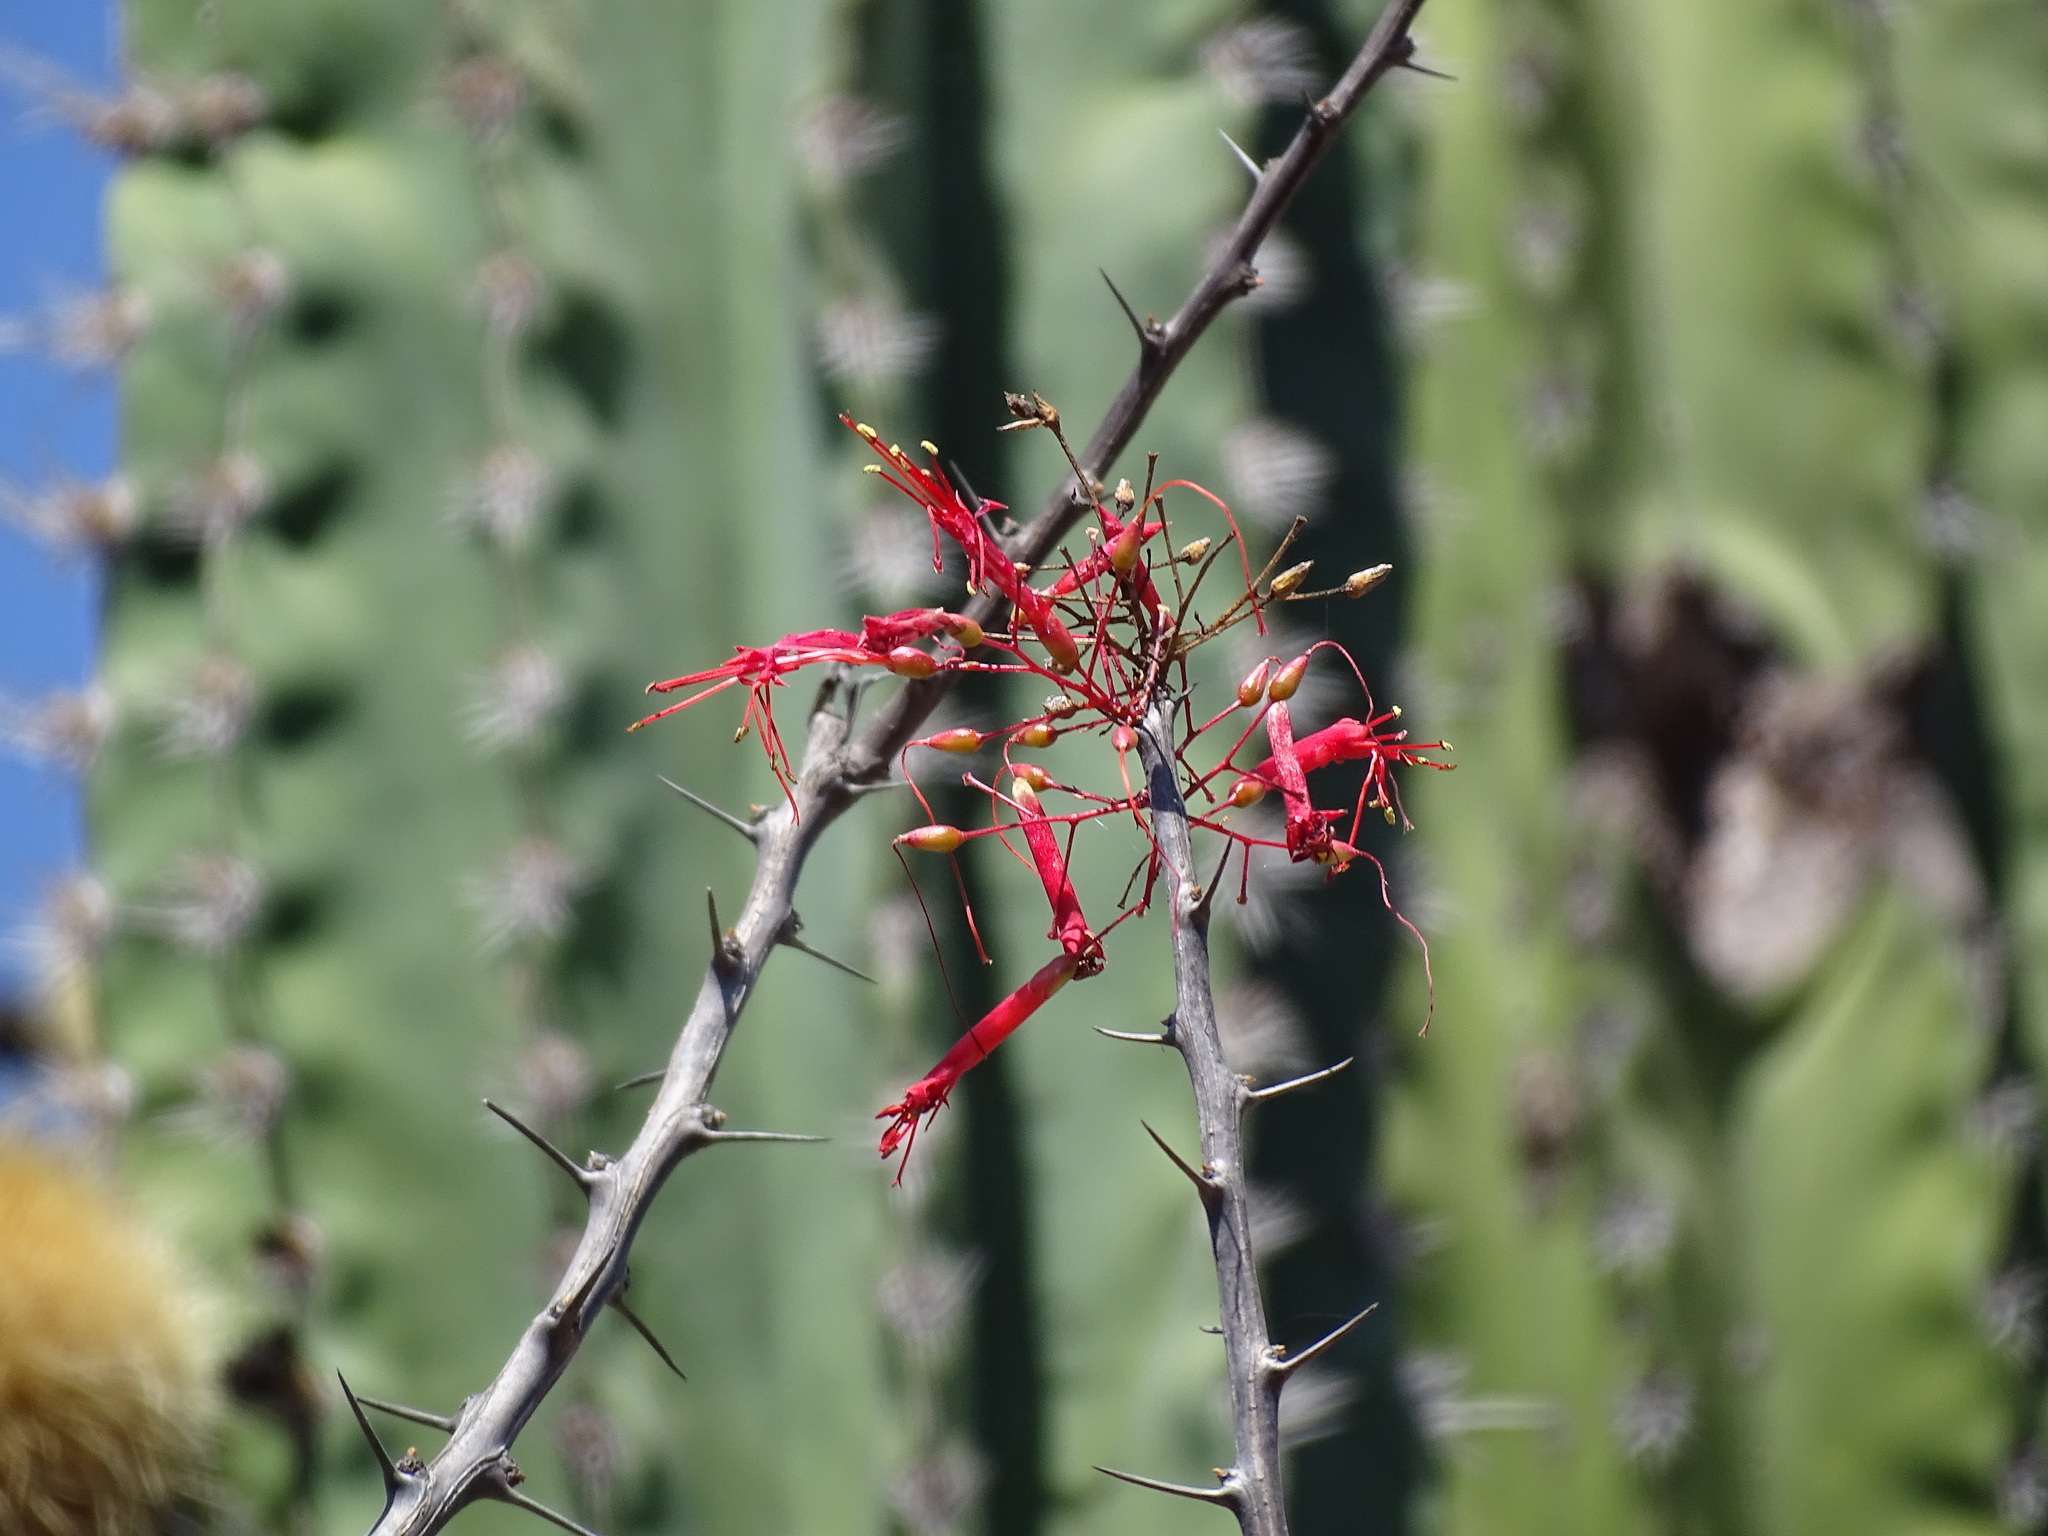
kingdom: Plantae
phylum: Tracheophyta
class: Magnoliopsida
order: Ericales
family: Fouquieriaceae
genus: Fouquieria
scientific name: Fouquieria macdougalii
